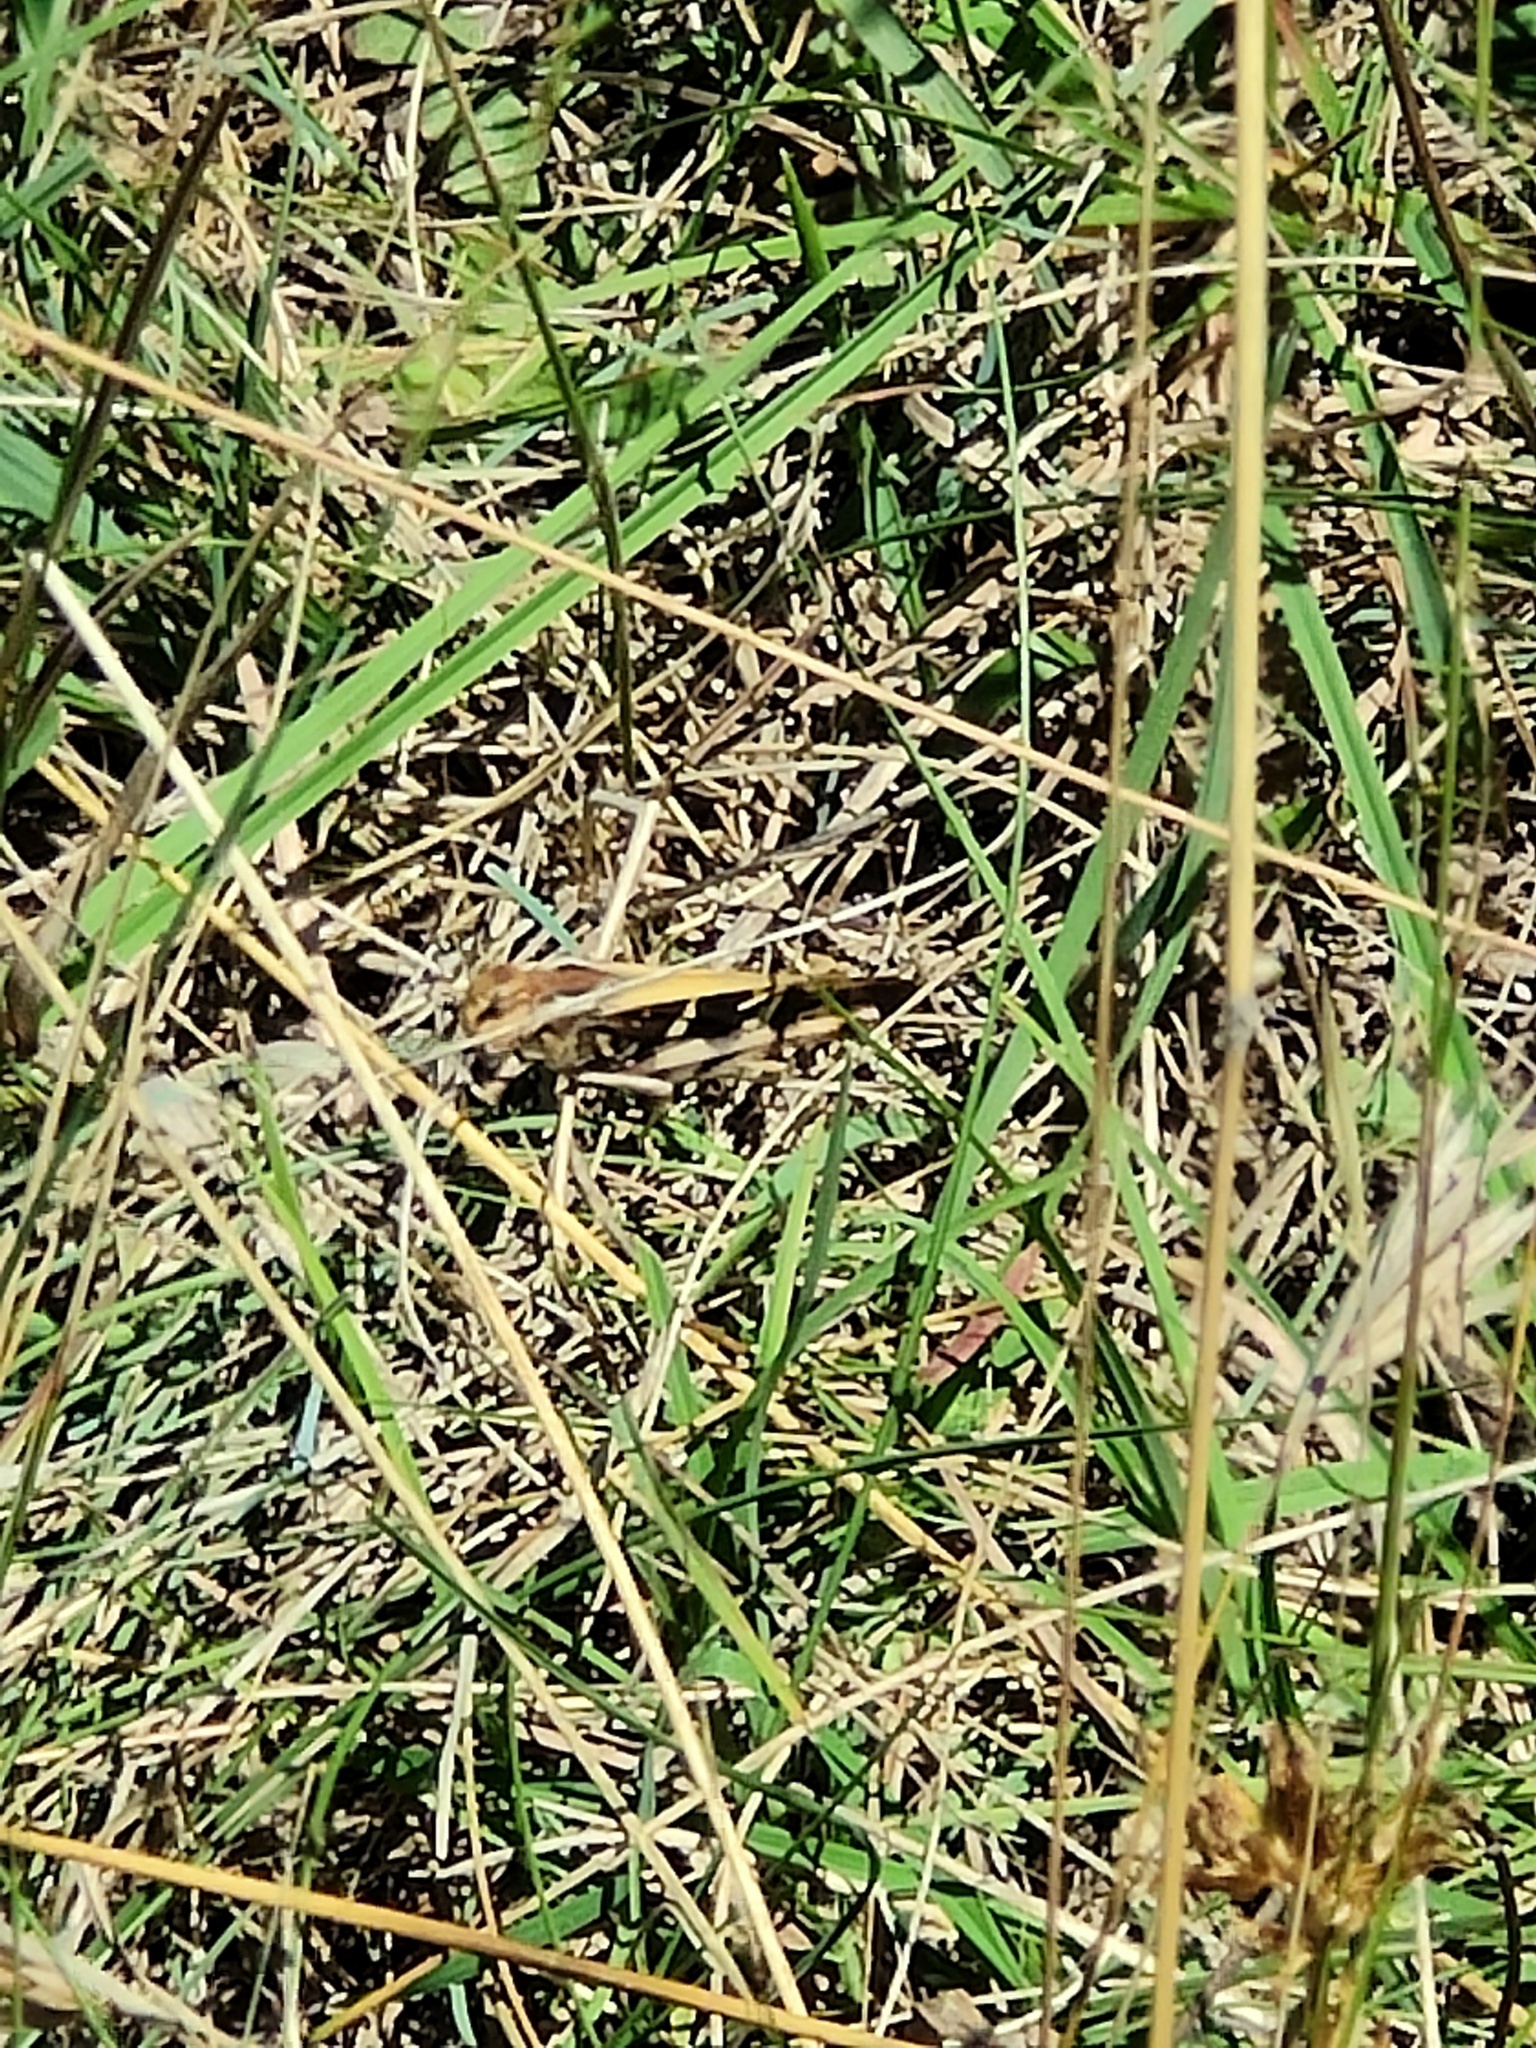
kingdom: Animalia
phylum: Arthropoda
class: Insecta
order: Orthoptera
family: Acrididae
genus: Gastrimargus
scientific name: Gastrimargus musicus
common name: Yellow-winged locust
